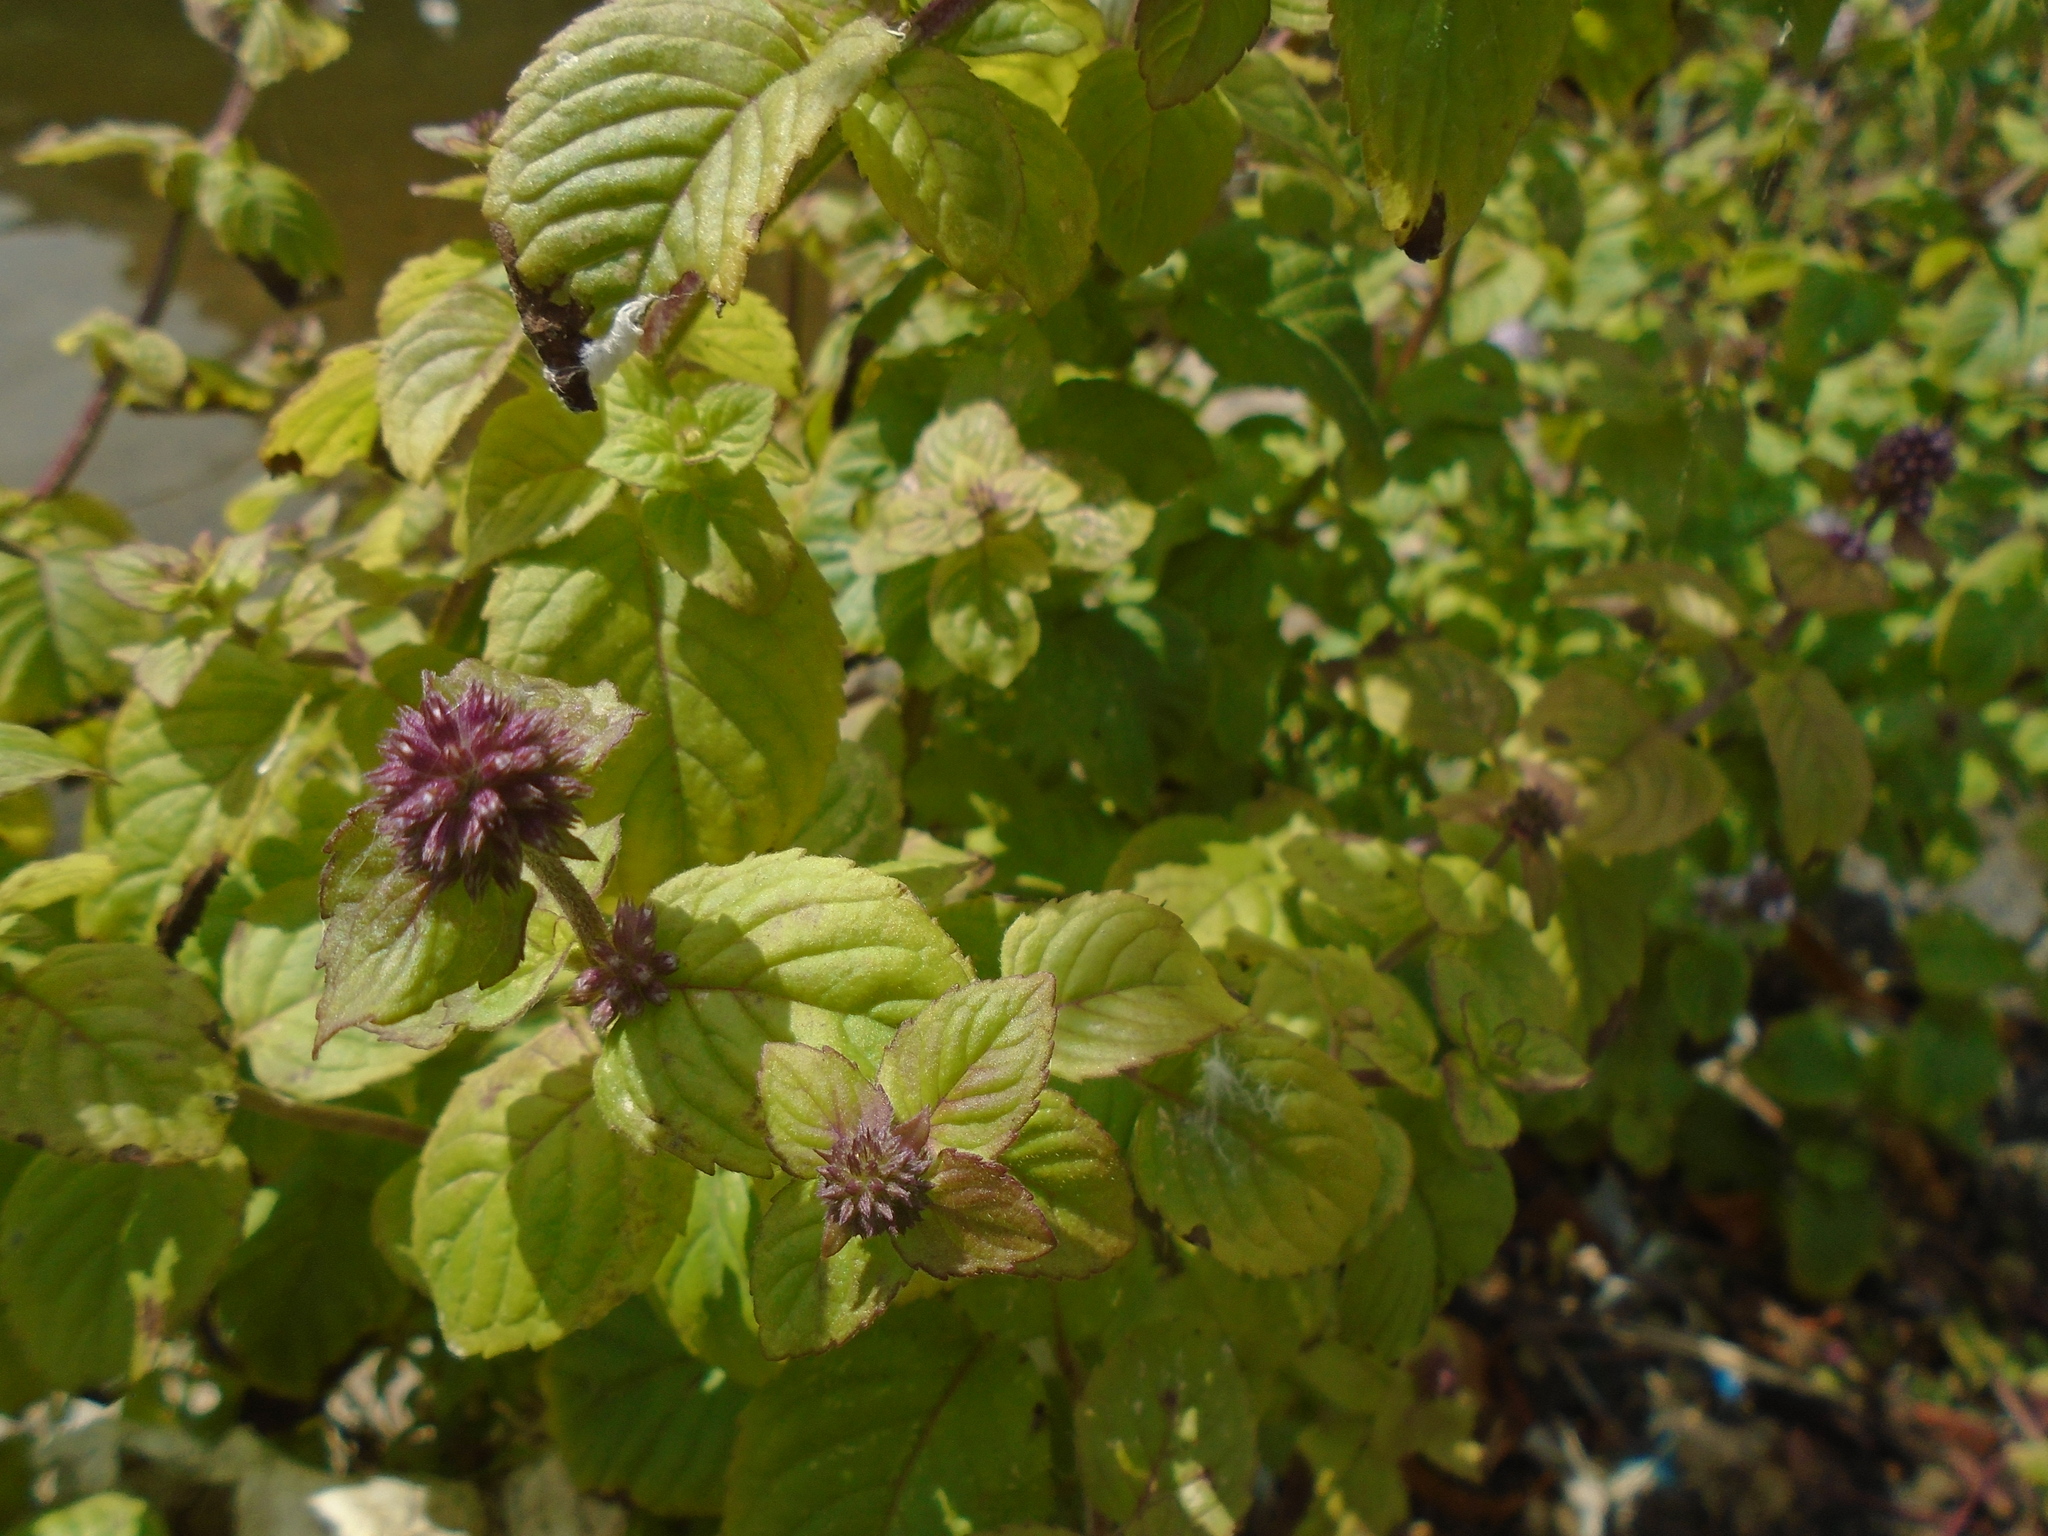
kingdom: Plantae
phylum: Tracheophyta
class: Magnoliopsida
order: Lamiales
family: Lamiaceae
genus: Mentha
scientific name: Mentha aquatica
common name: Water mint
